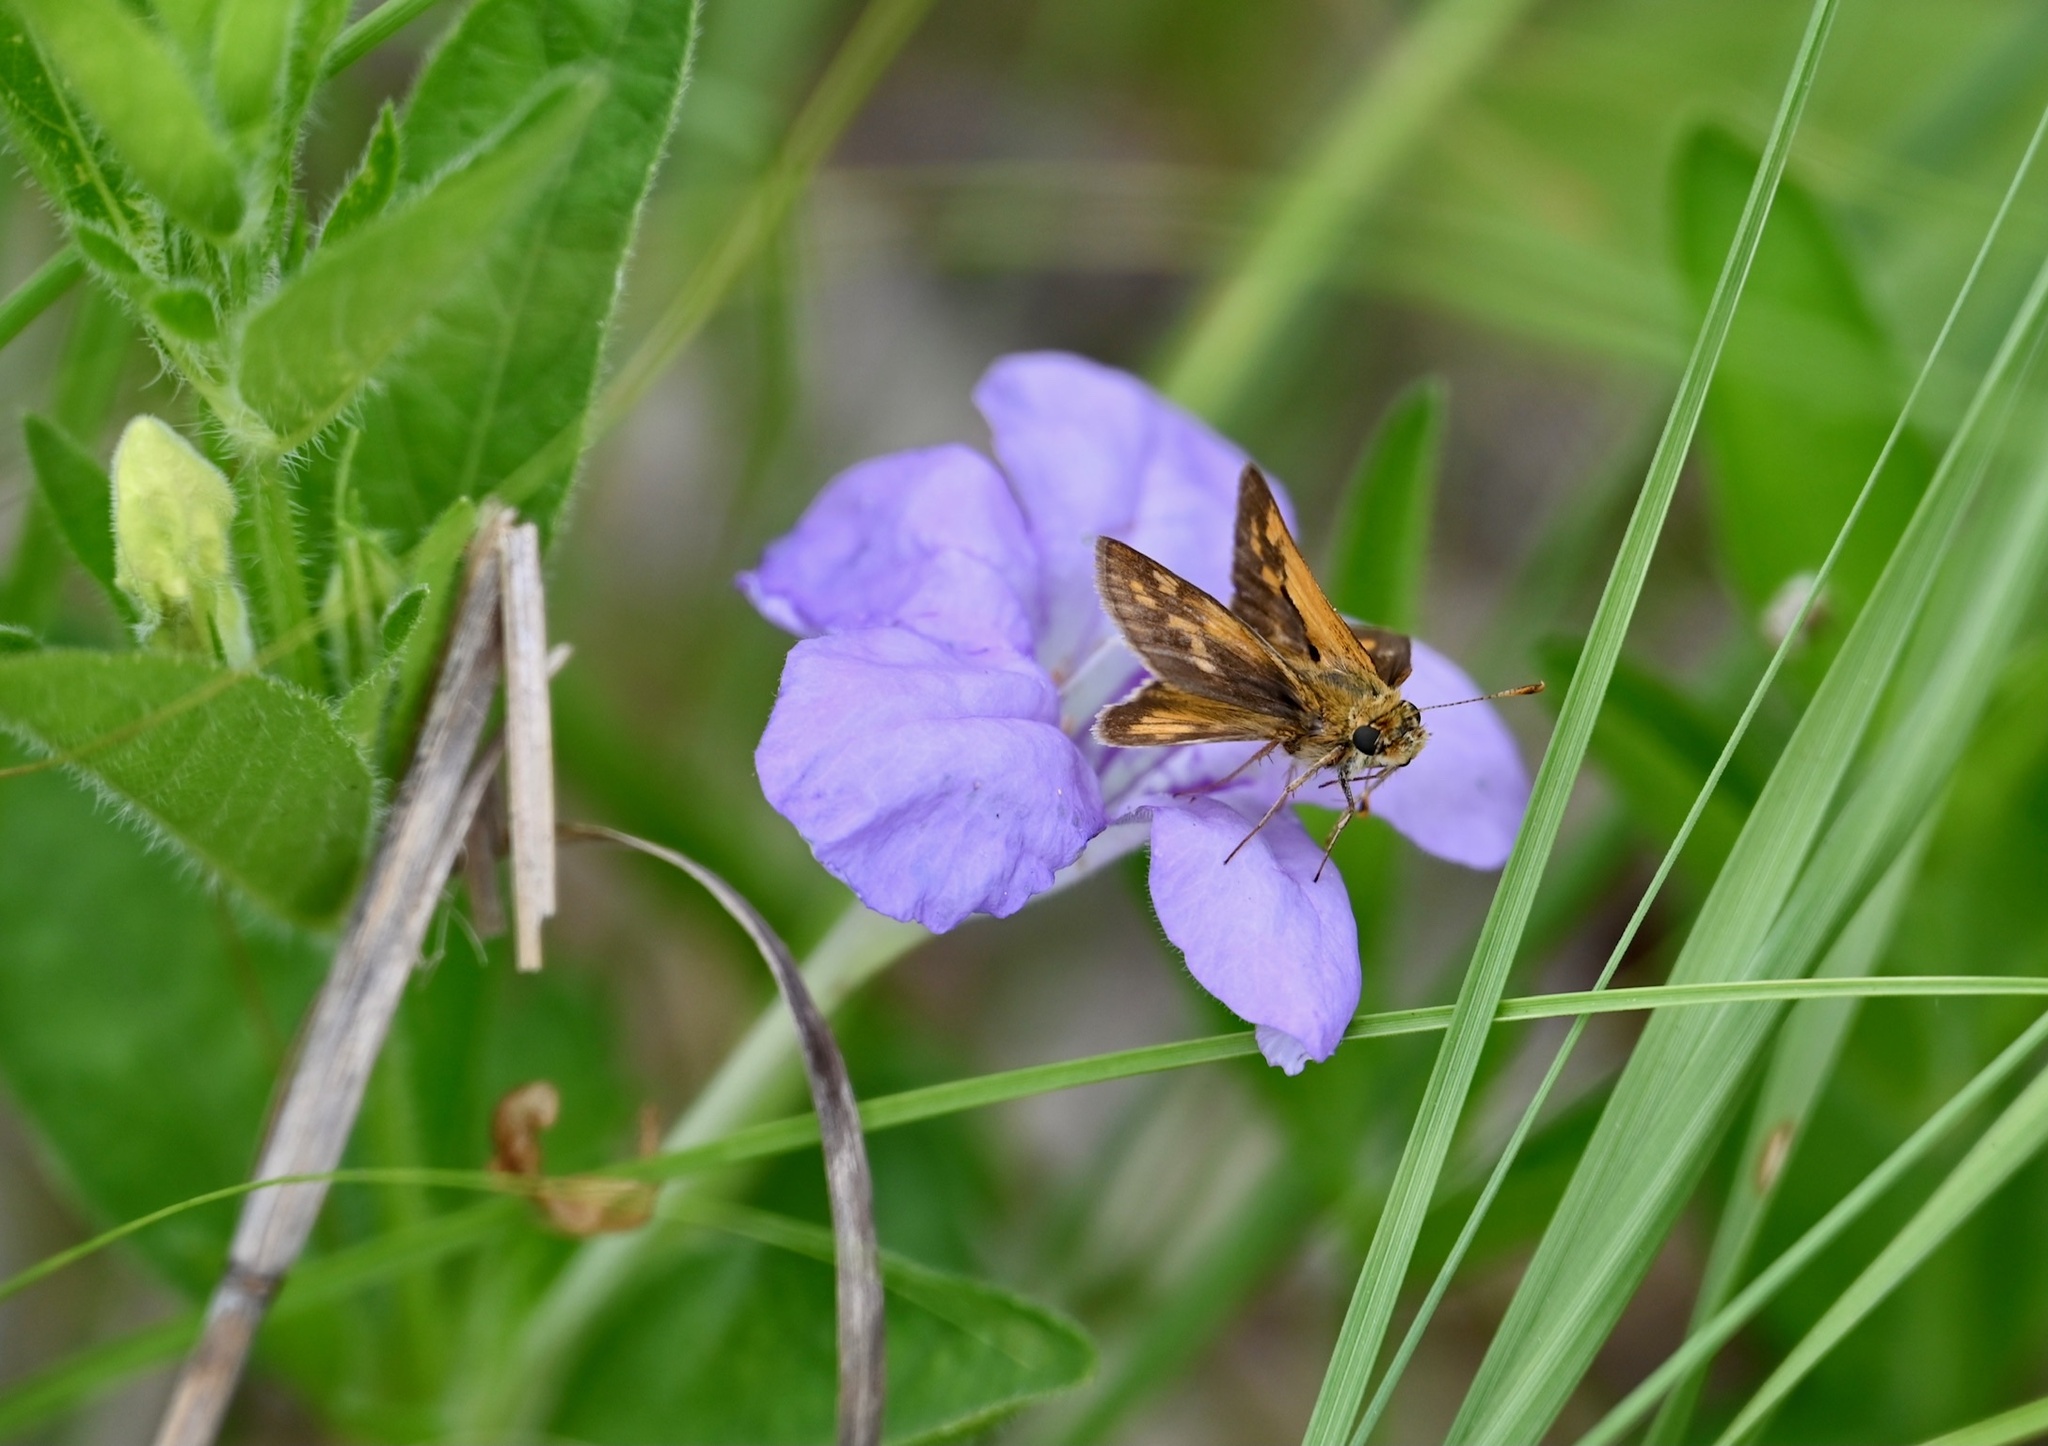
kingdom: Animalia
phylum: Arthropoda
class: Insecta
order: Lepidoptera
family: Hesperiidae
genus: Polites
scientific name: Polites coras
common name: Peck's skipper
